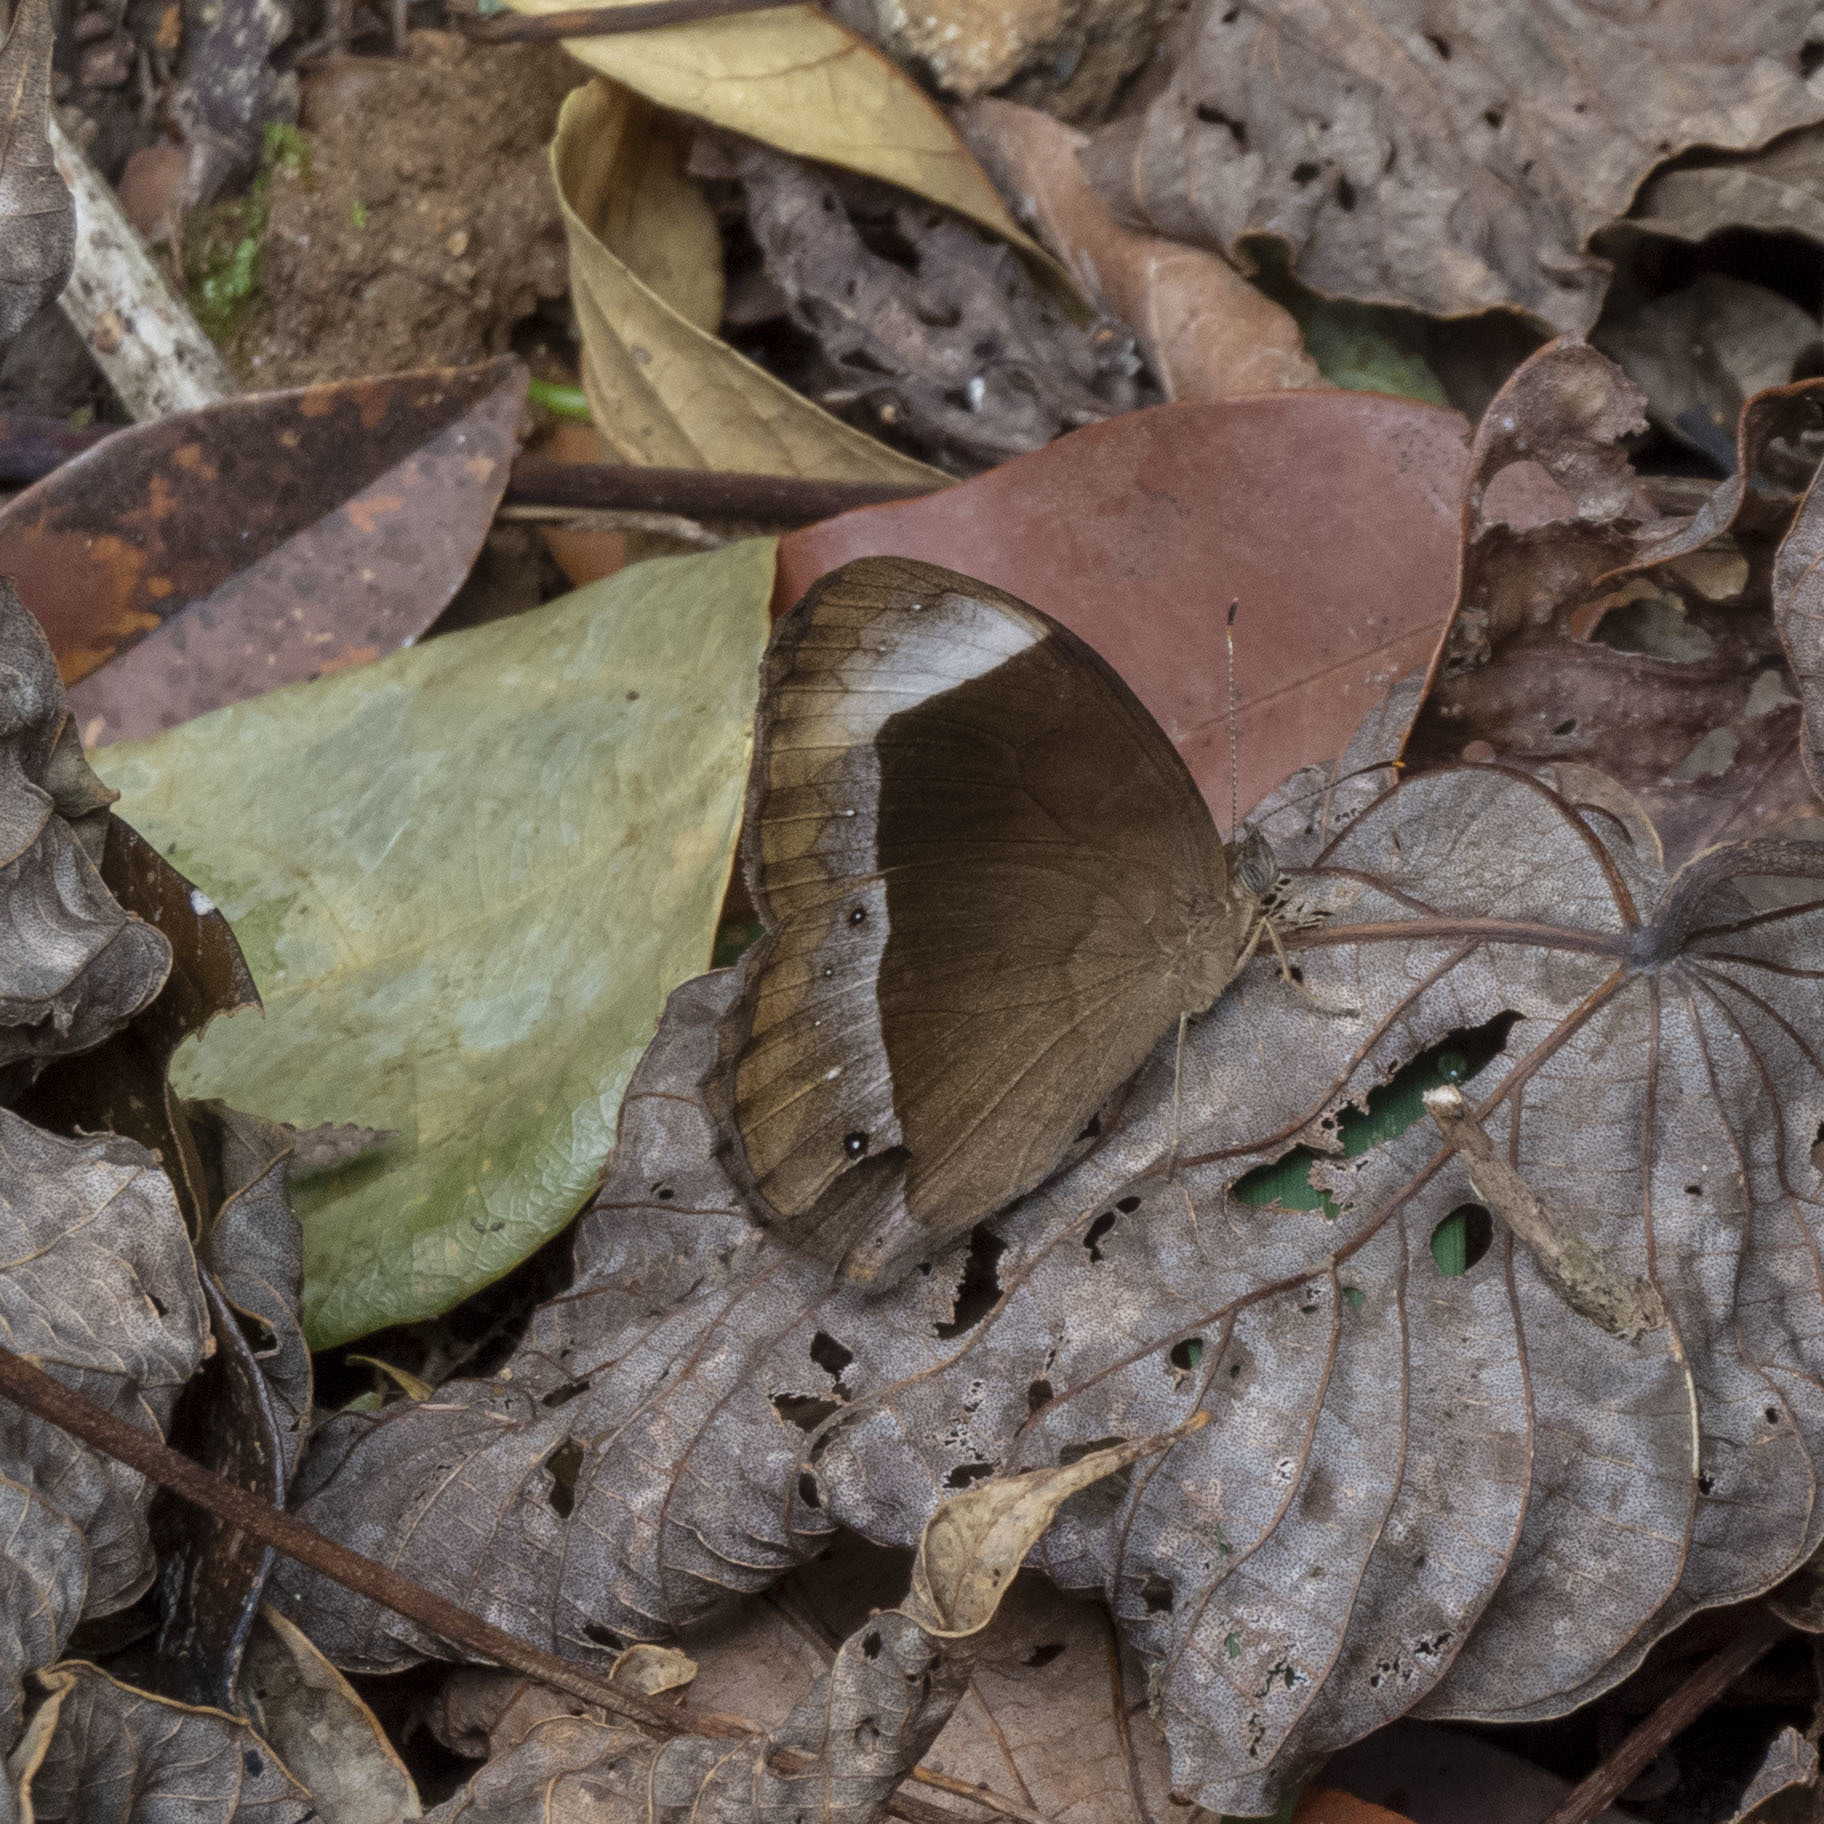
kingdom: Animalia
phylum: Arthropoda
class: Insecta
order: Lepidoptera
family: Nymphalidae
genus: Mycalesis
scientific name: Mycalesis anaxias
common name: White-bar bushbrown
